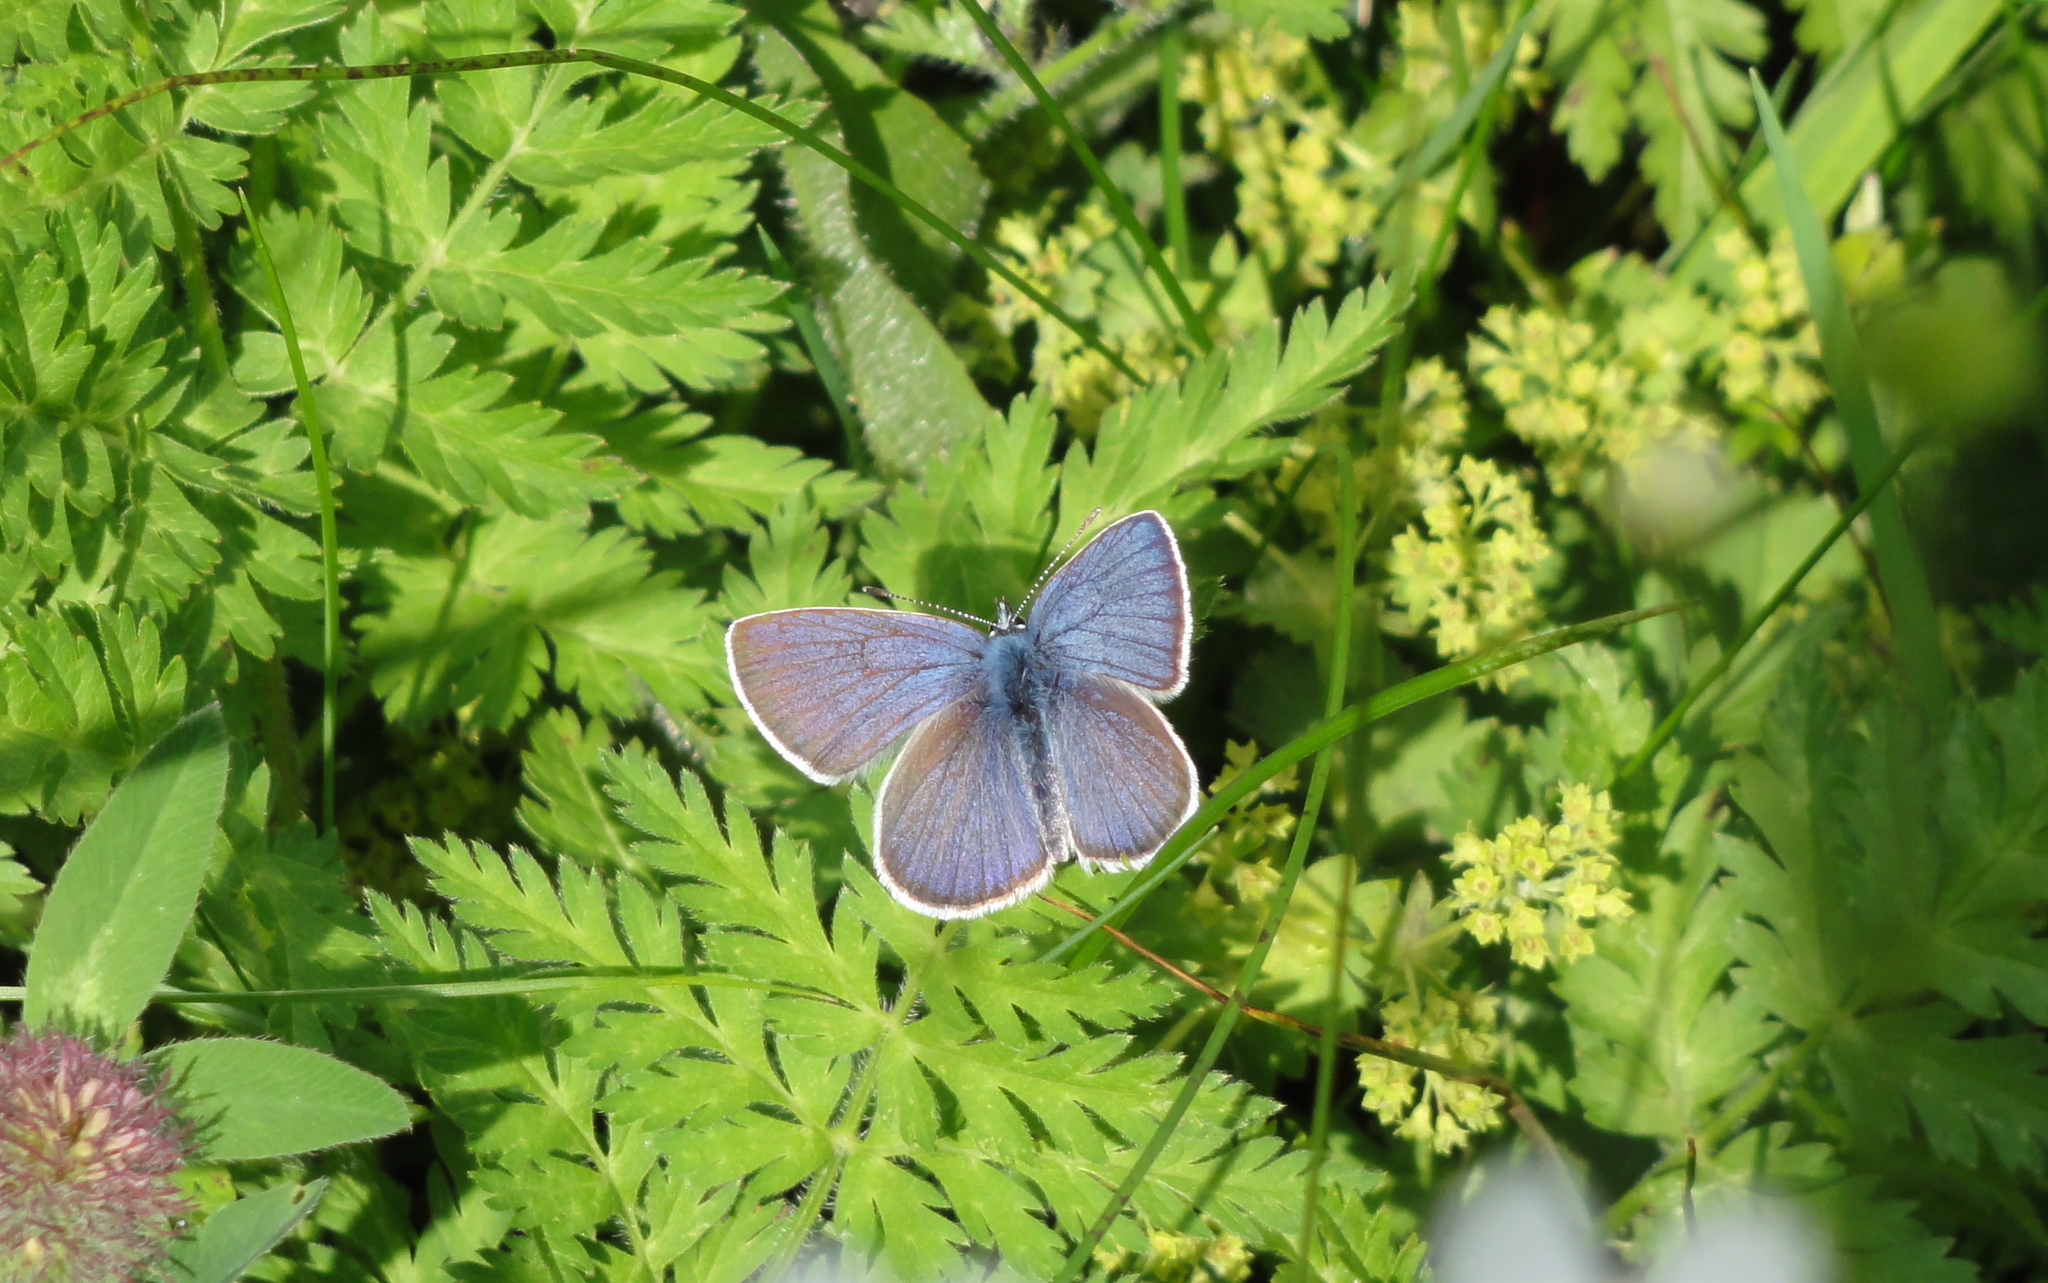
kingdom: Animalia
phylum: Arthropoda
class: Insecta
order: Lepidoptera
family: Lycaenidae
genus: Cyaniris
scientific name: Cyaniris semiargus
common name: Mazarine blue
